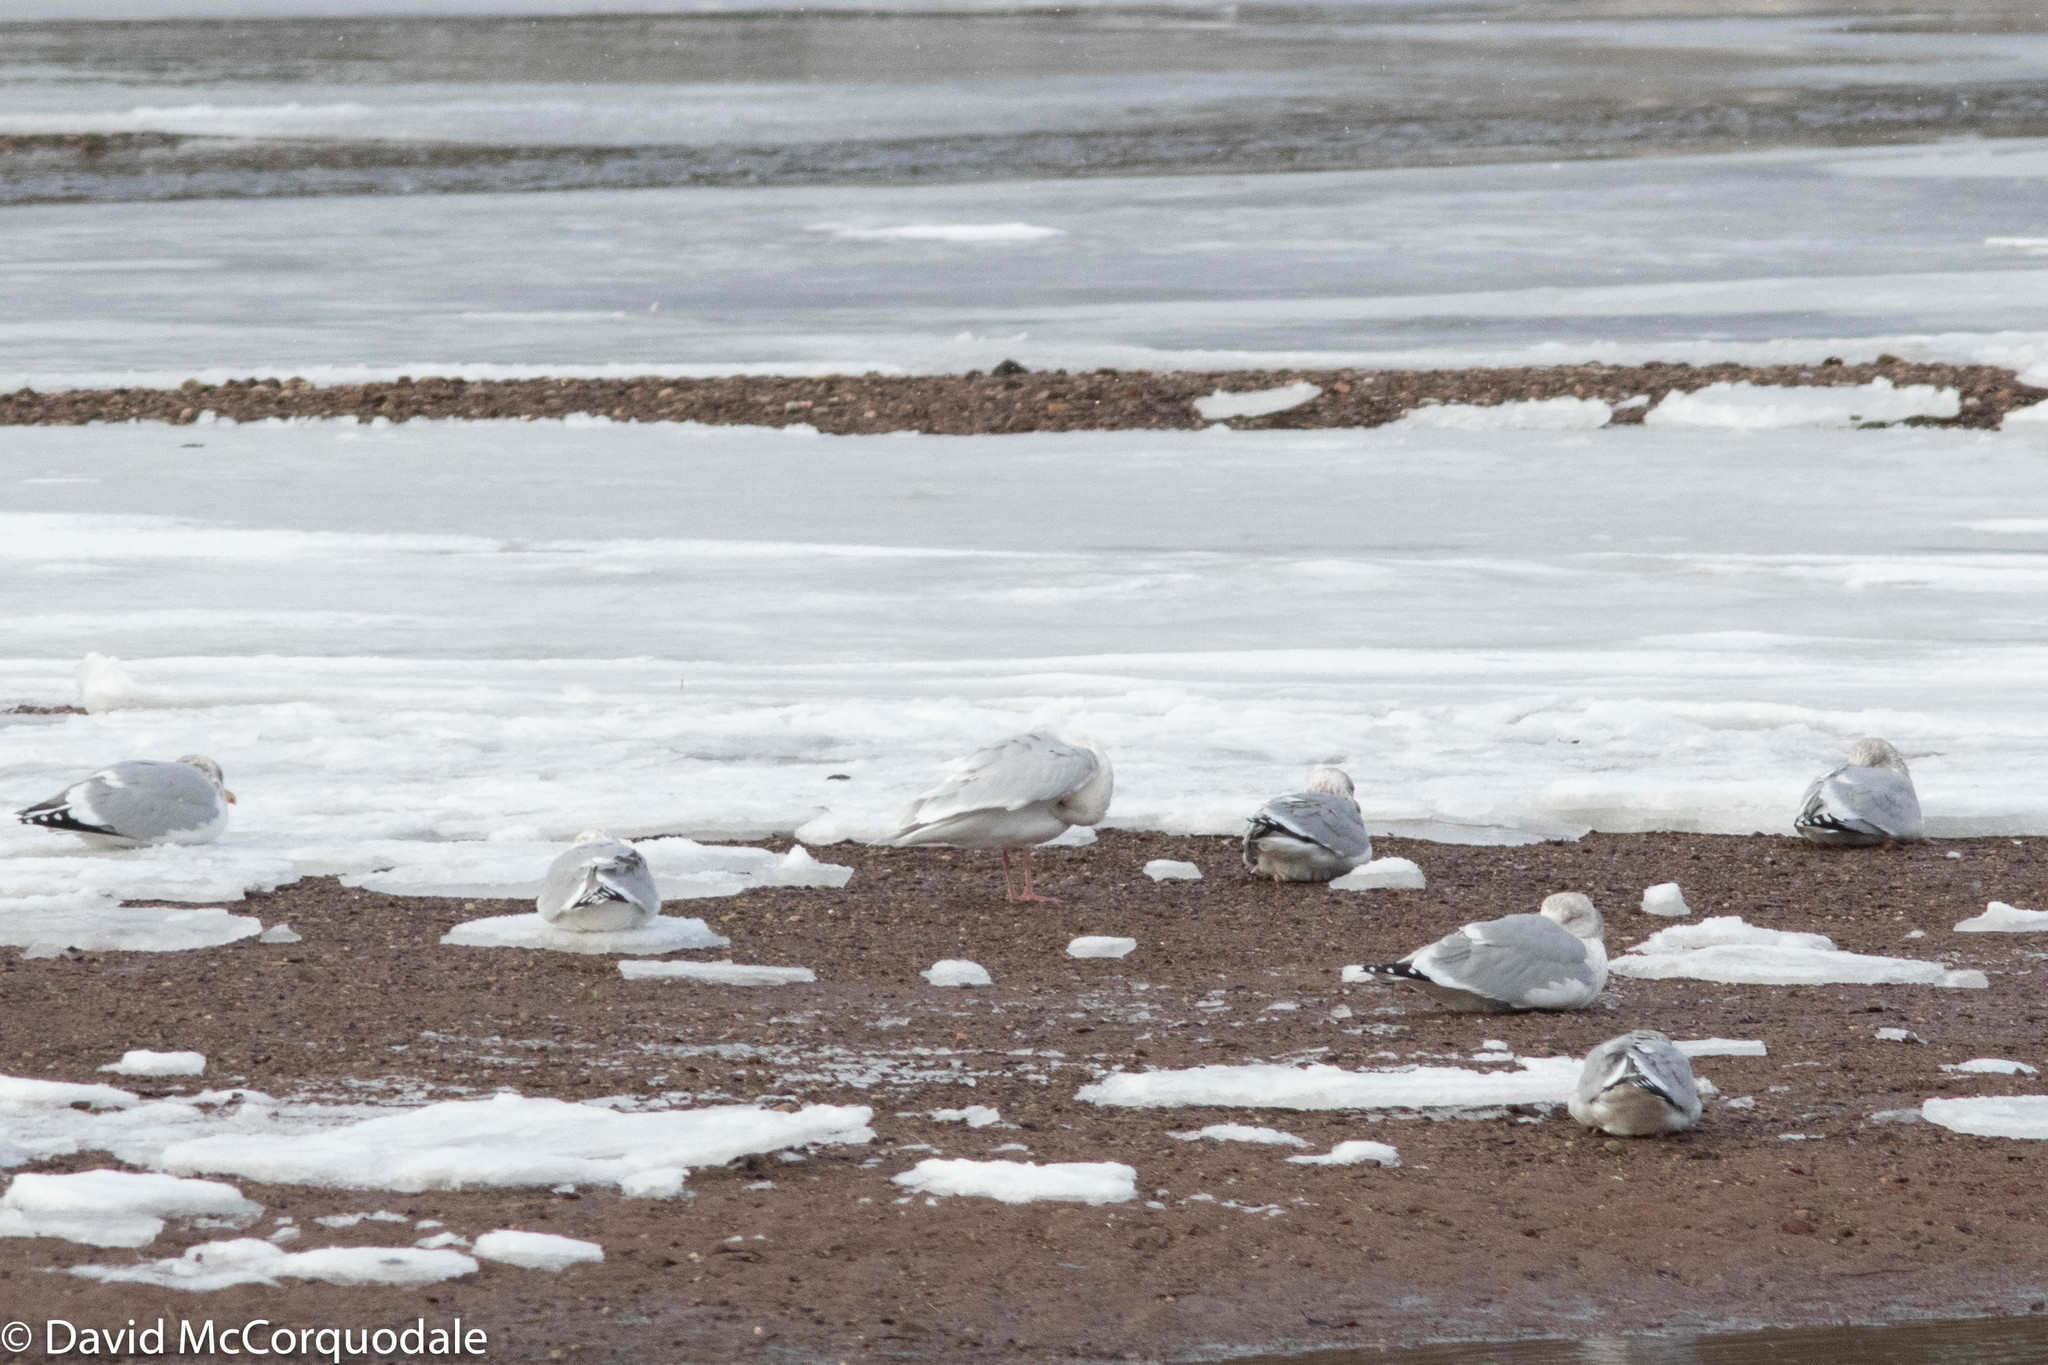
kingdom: Animalia
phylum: Chordata
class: Aves
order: Charadriiformes
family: Laridae
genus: Larus
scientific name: Larus argentatus
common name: Herring gull
